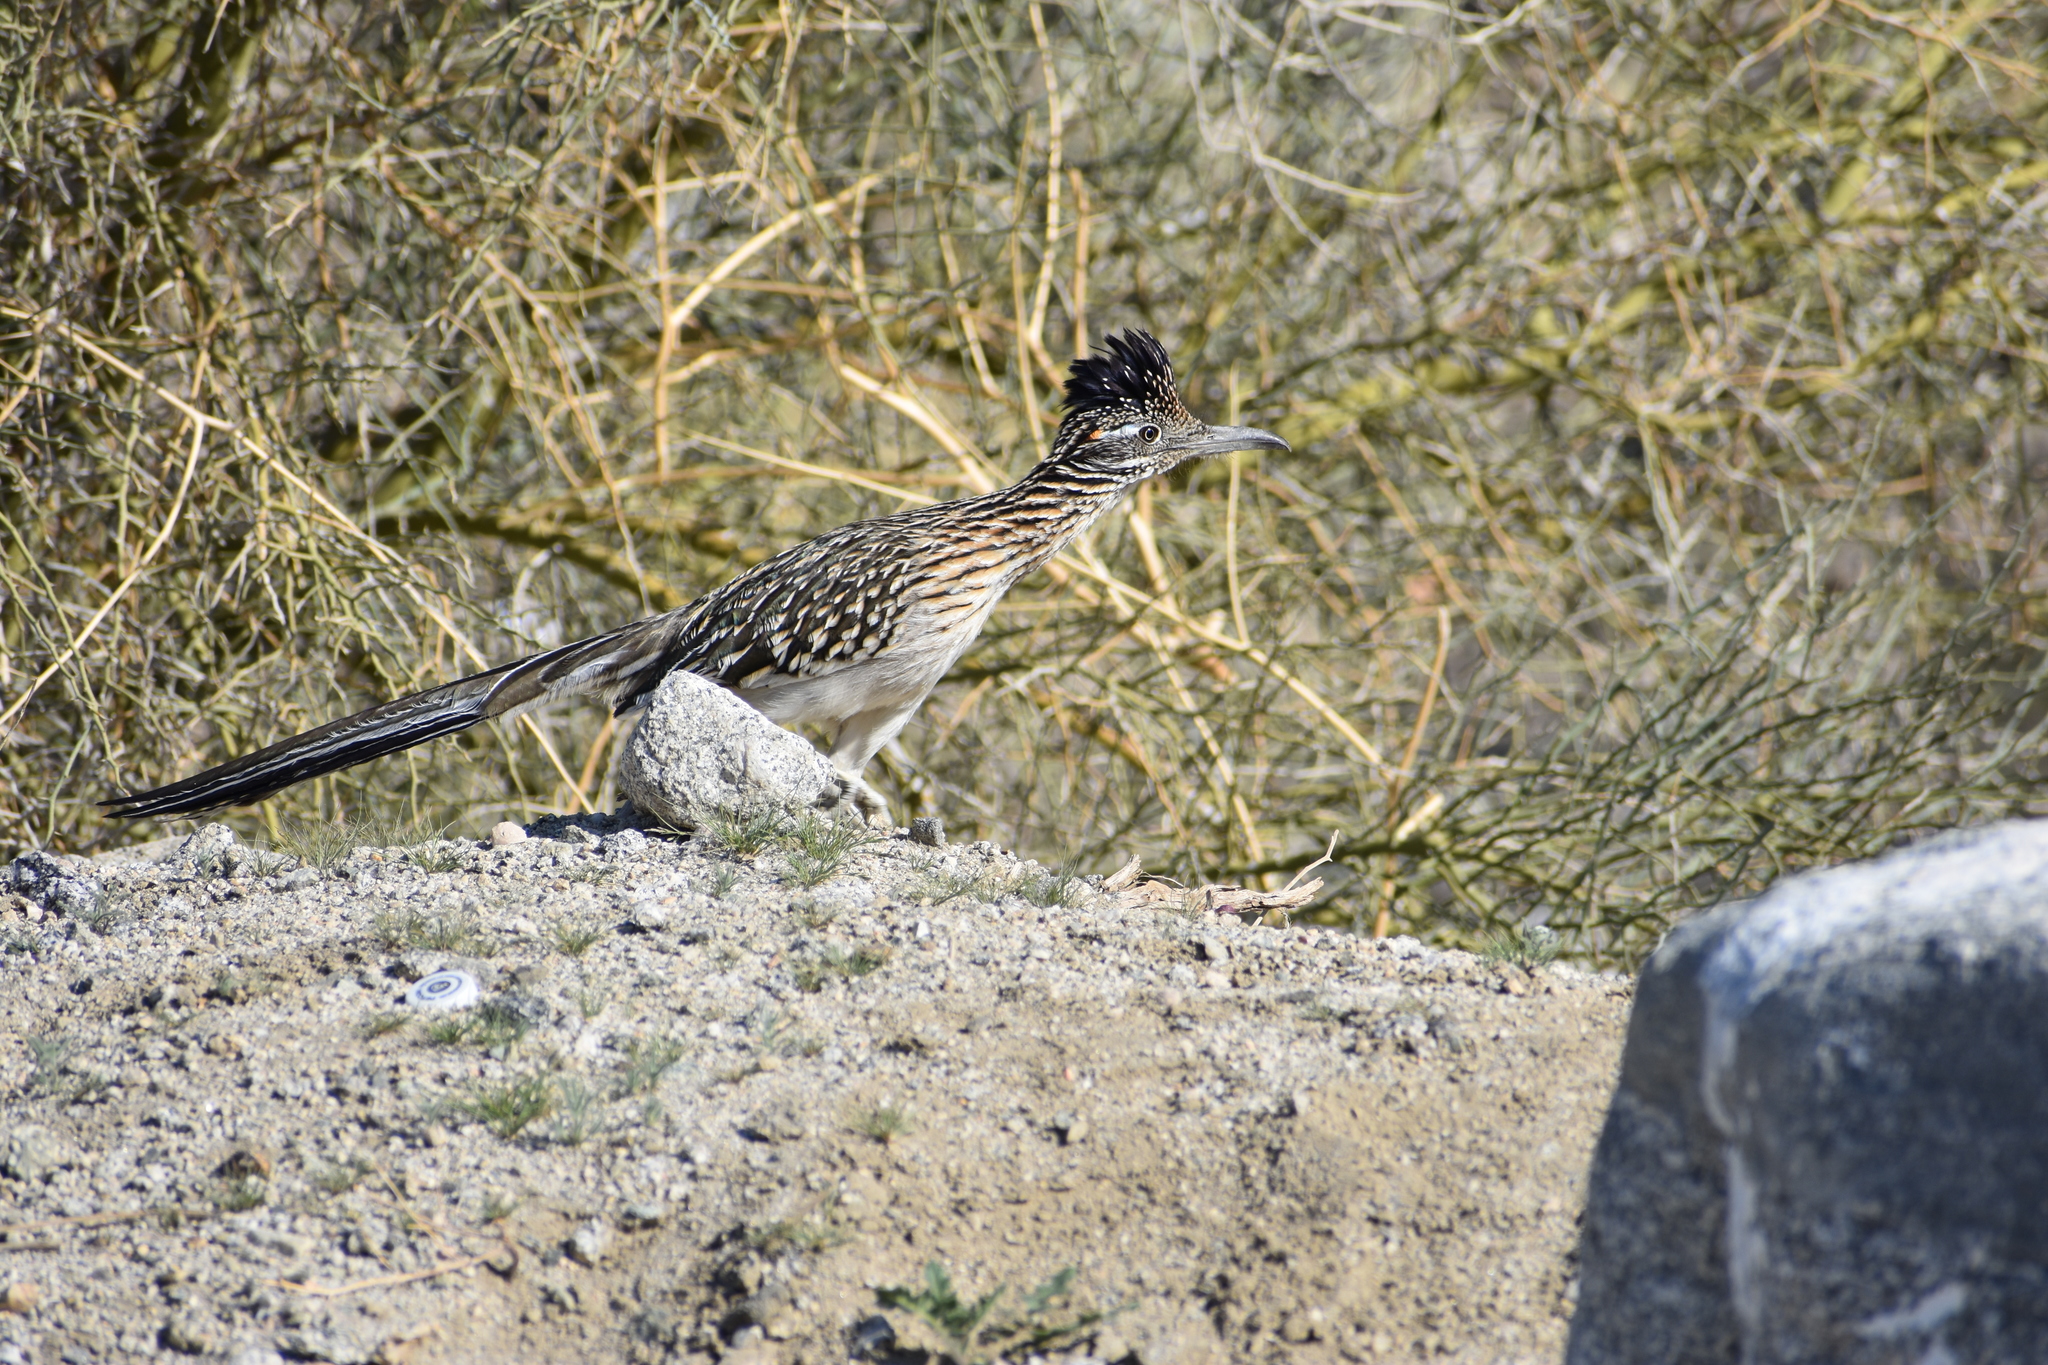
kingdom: Animalia
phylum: Chordata
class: Aves
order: Cuculiformes
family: Cuculidae
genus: Geococcyx
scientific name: Geococcyx californianus
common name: Greater roadrunner
